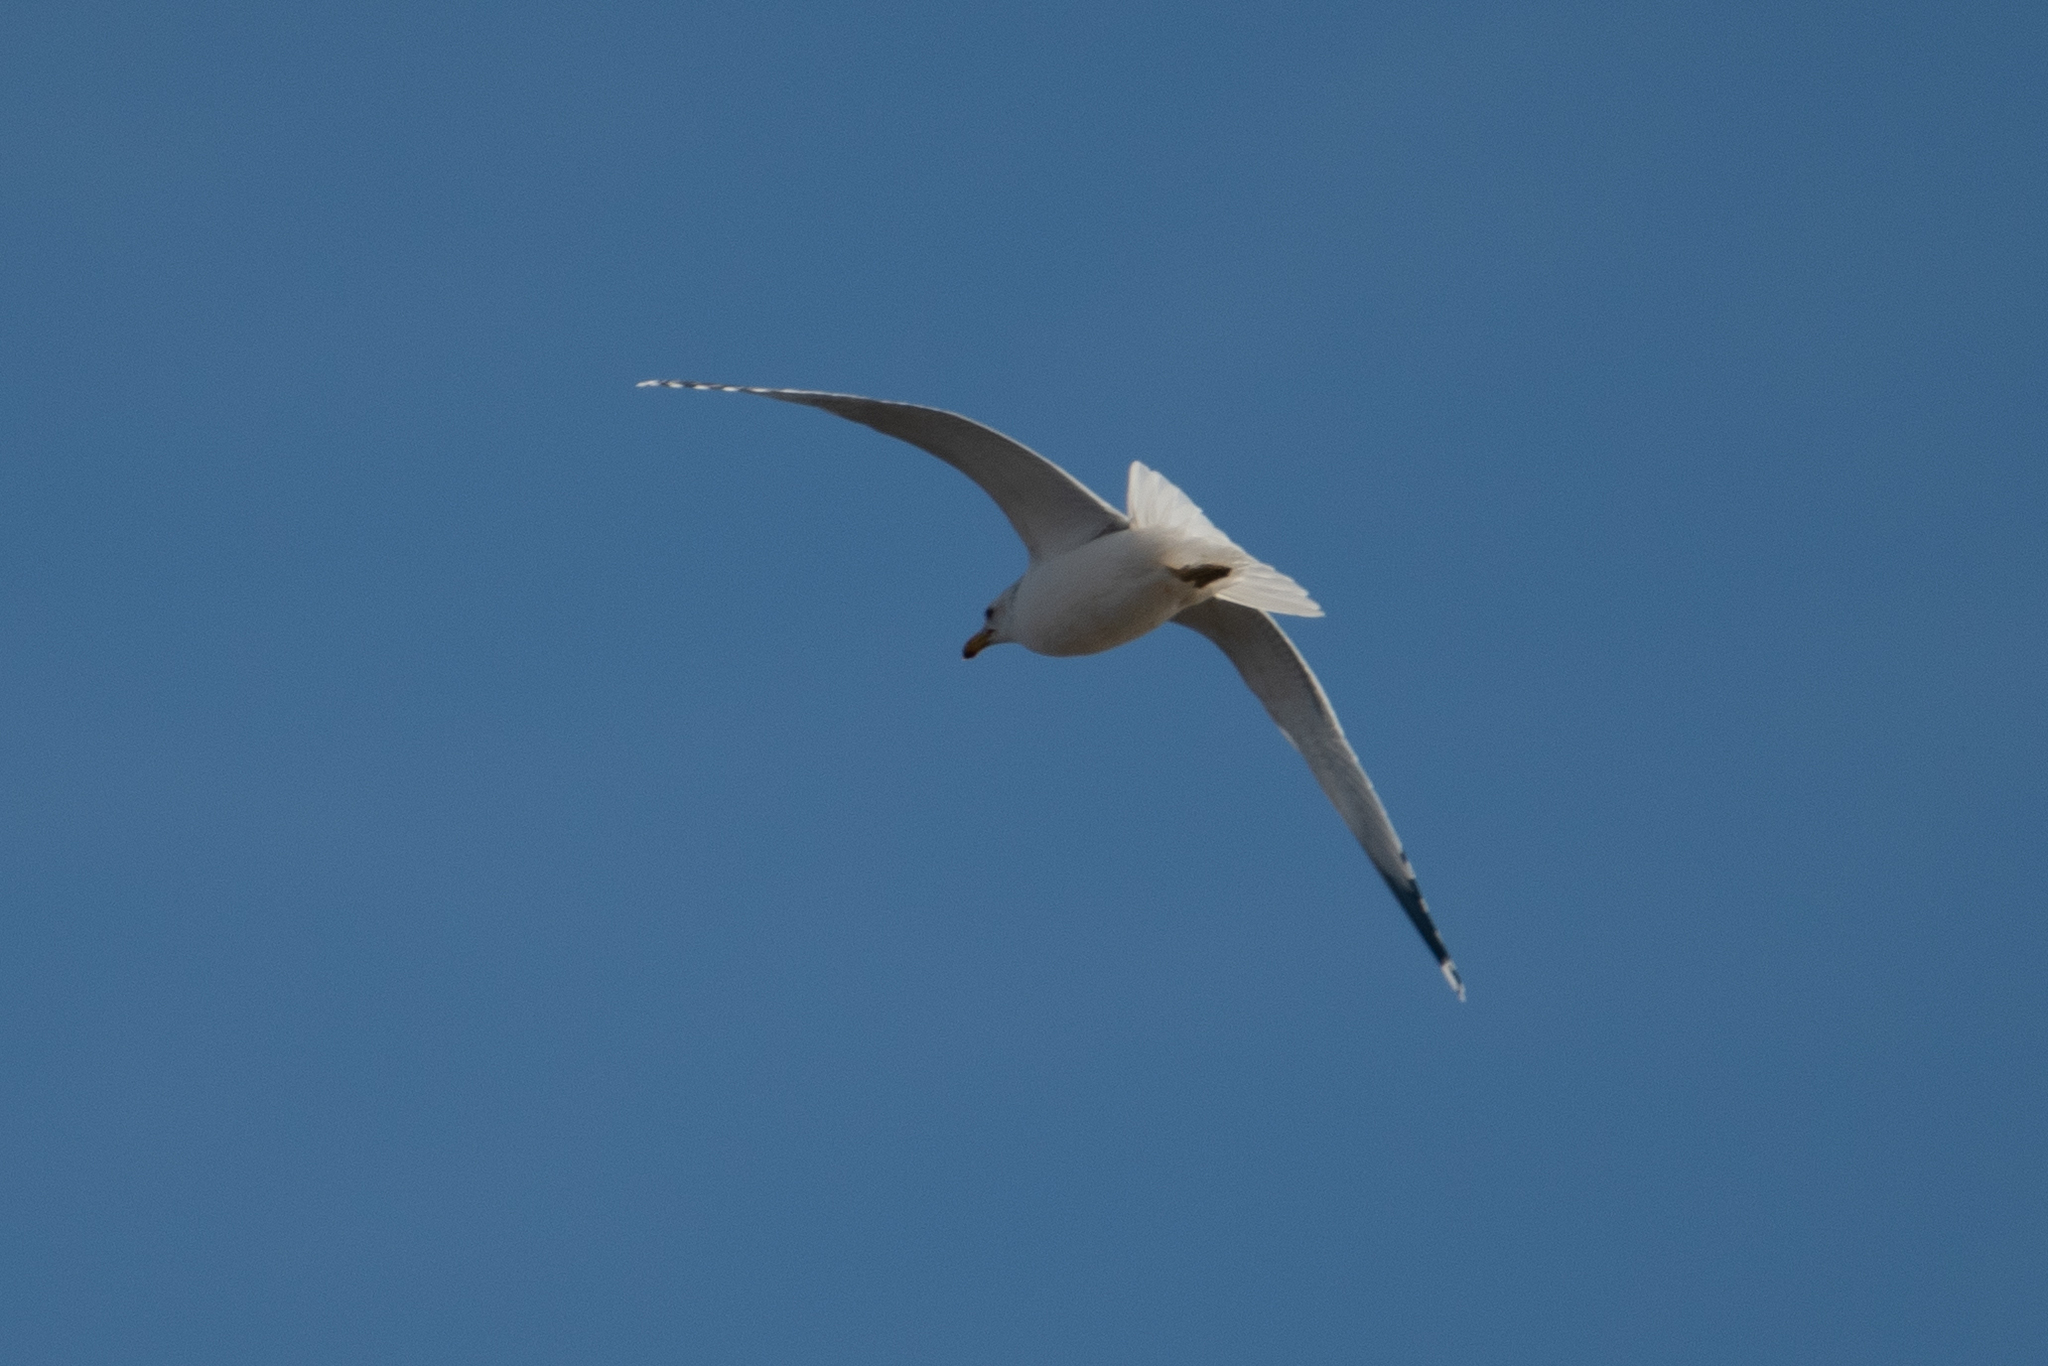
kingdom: Animalia
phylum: Chordata
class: Aves
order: Charadriiformes
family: Laridae
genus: Larus
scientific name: Larus californicus
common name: California gull
